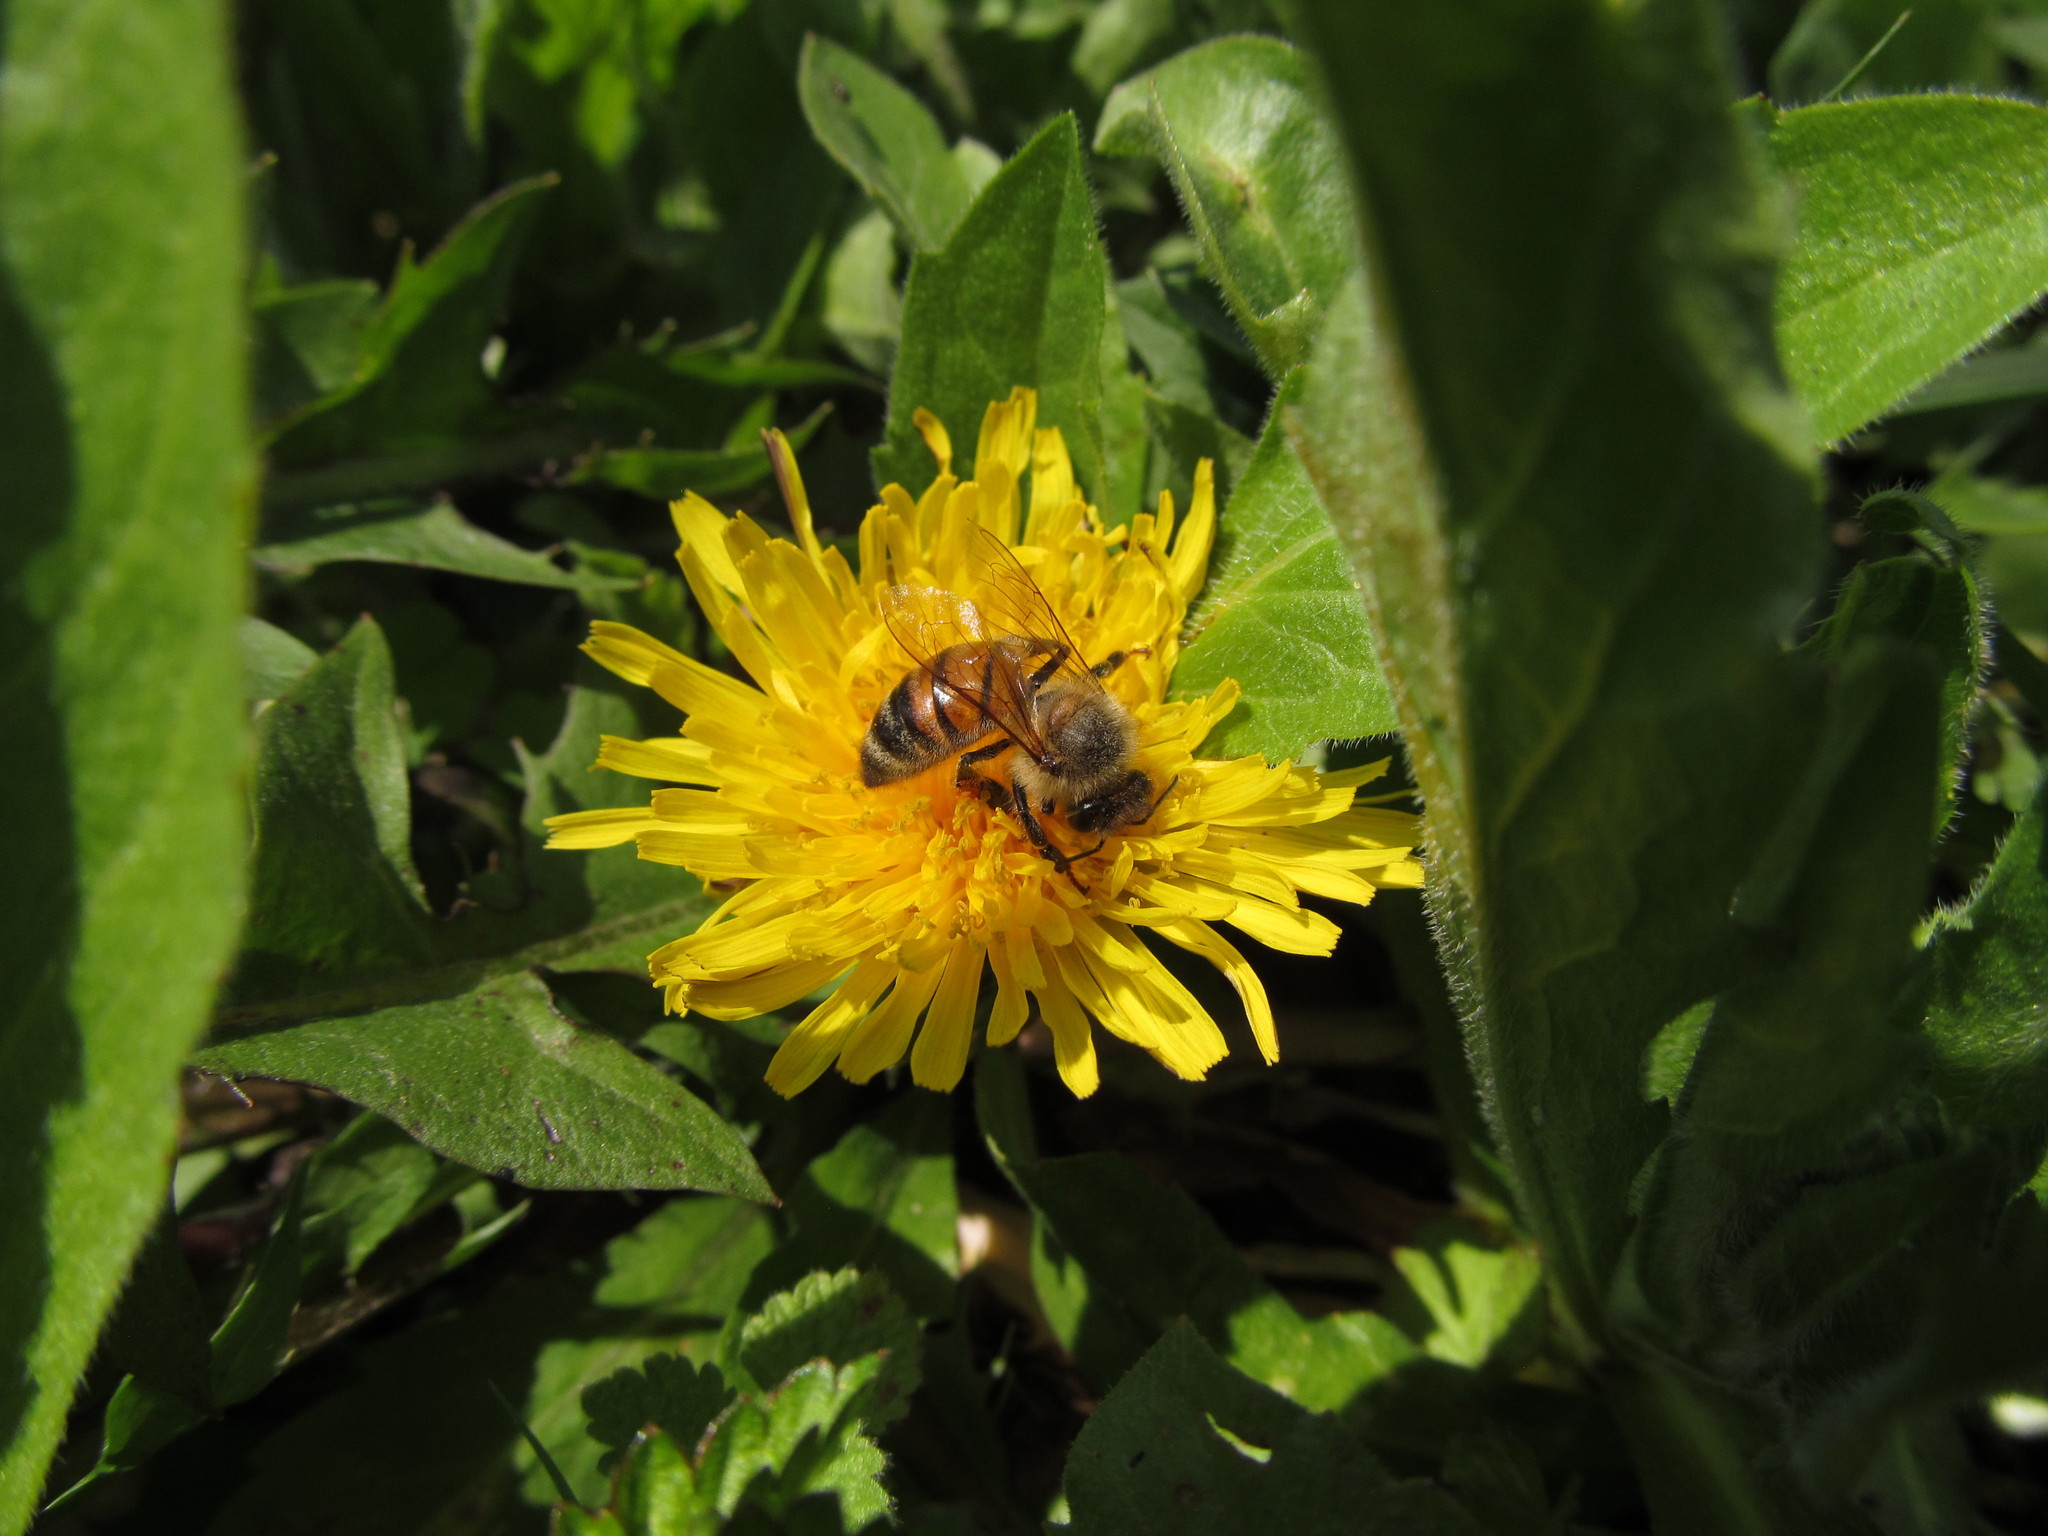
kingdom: Animalia
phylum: Arthropoda
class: Insecta
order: Hymenoptera
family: Apidae
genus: Apis
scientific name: Apis mellifera
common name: Honey bee
